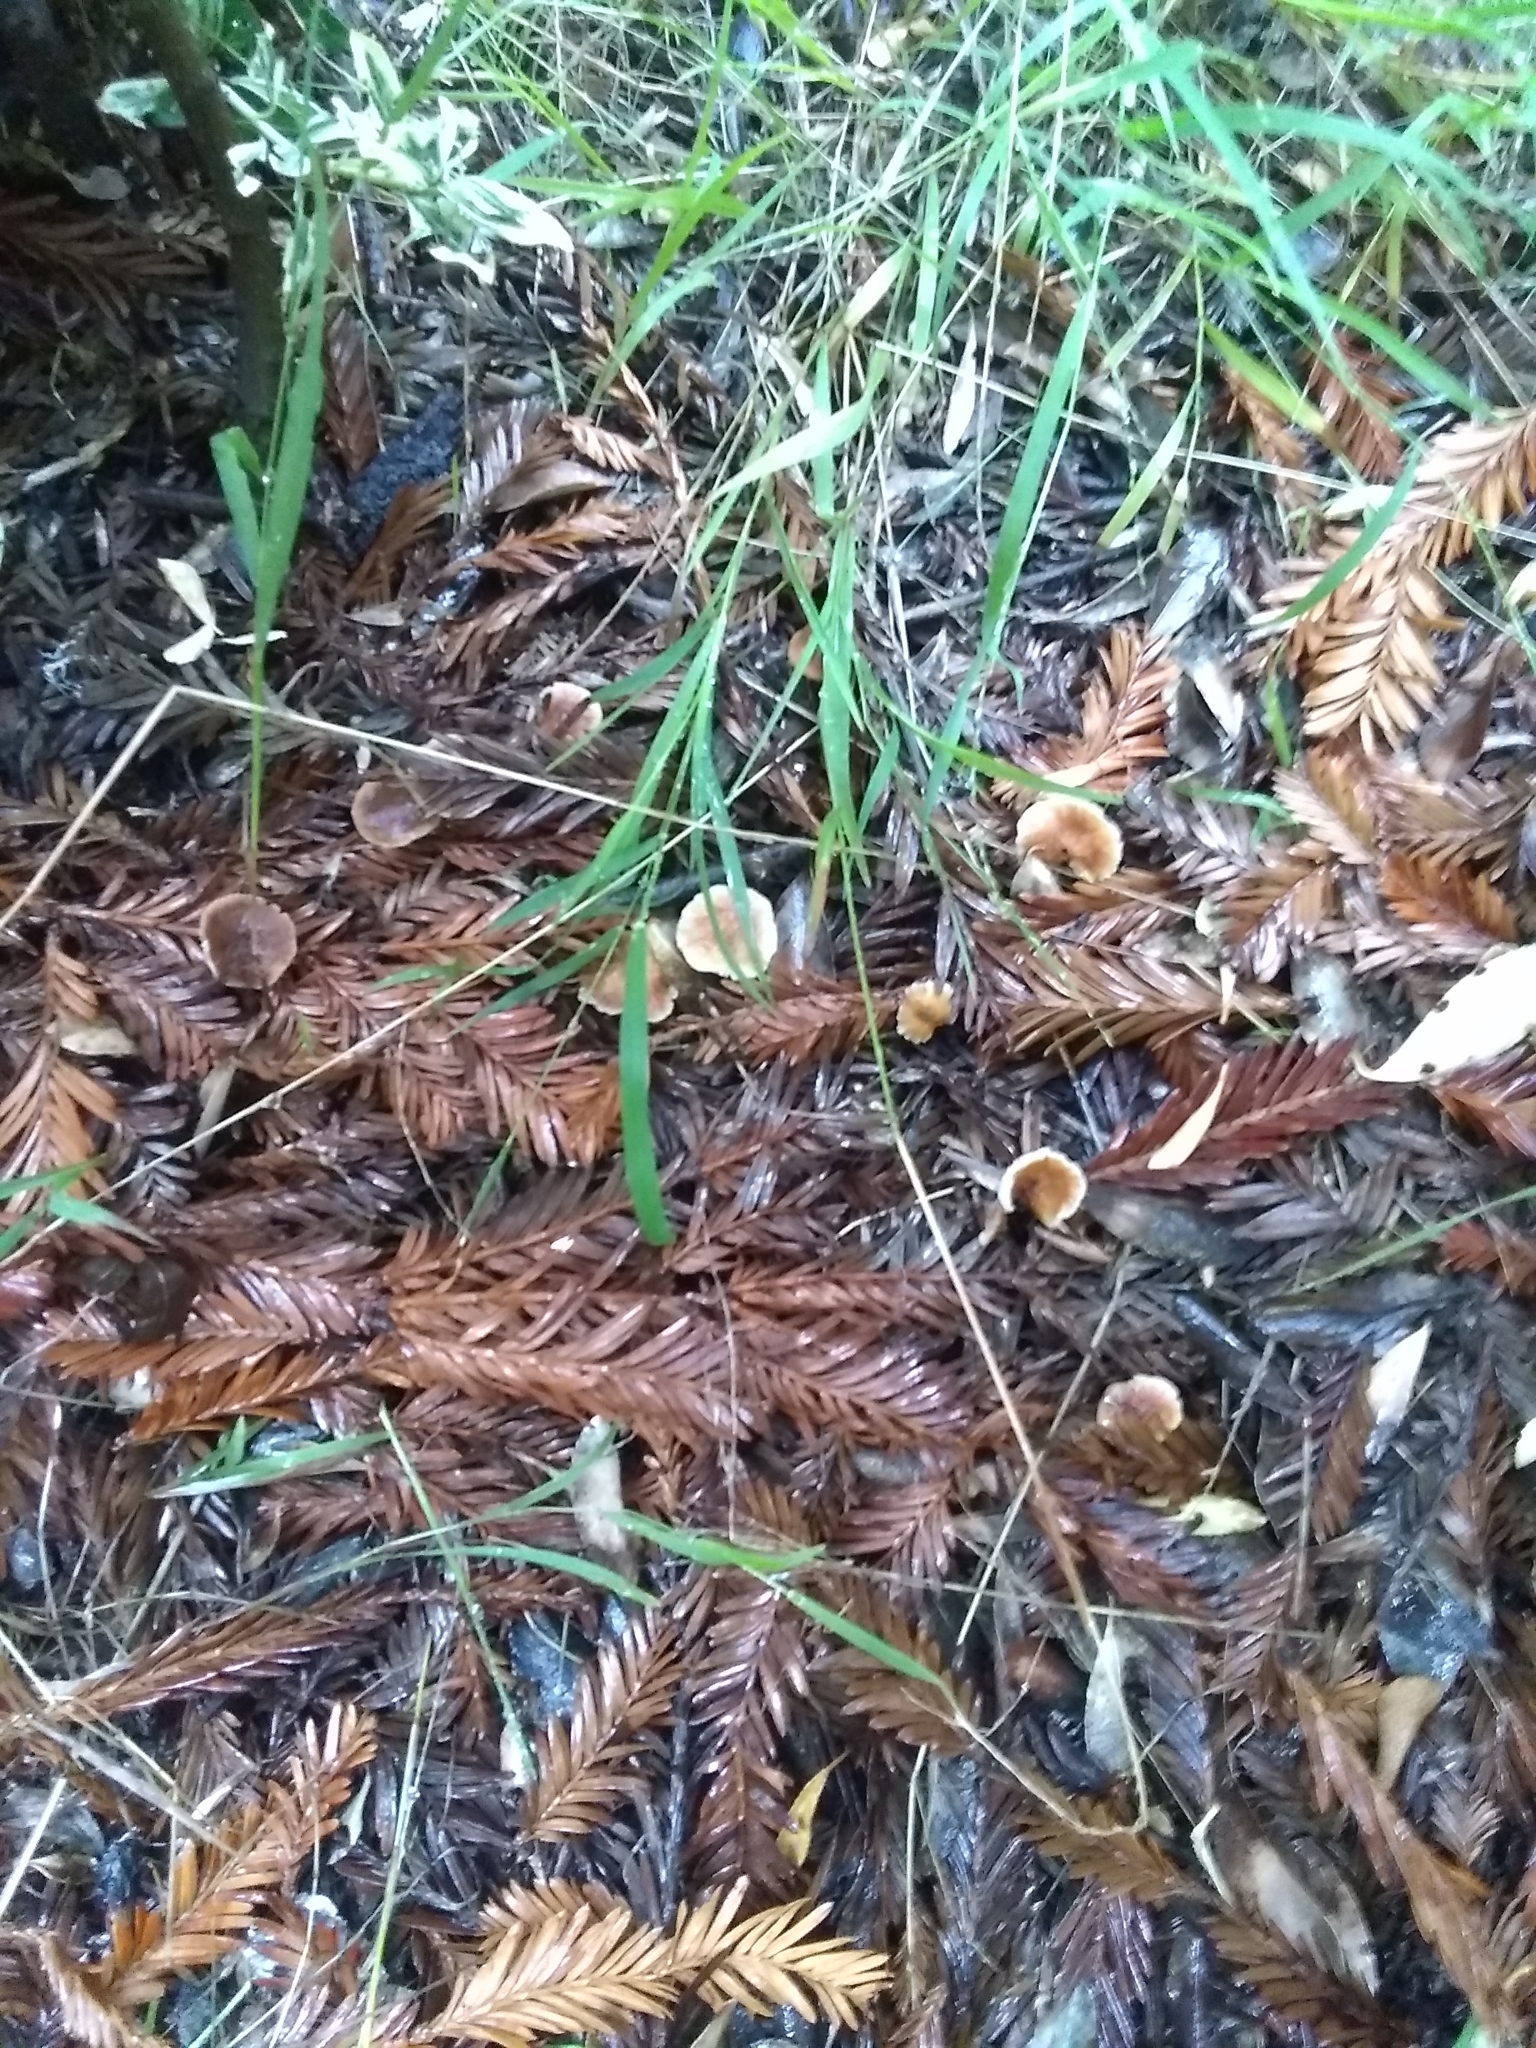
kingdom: Fungi
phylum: Basidiomycota
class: Agaricomycetes
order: Agaricales
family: Omphalotaceae
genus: Gymnopus
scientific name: Gymnopus brassicolens
